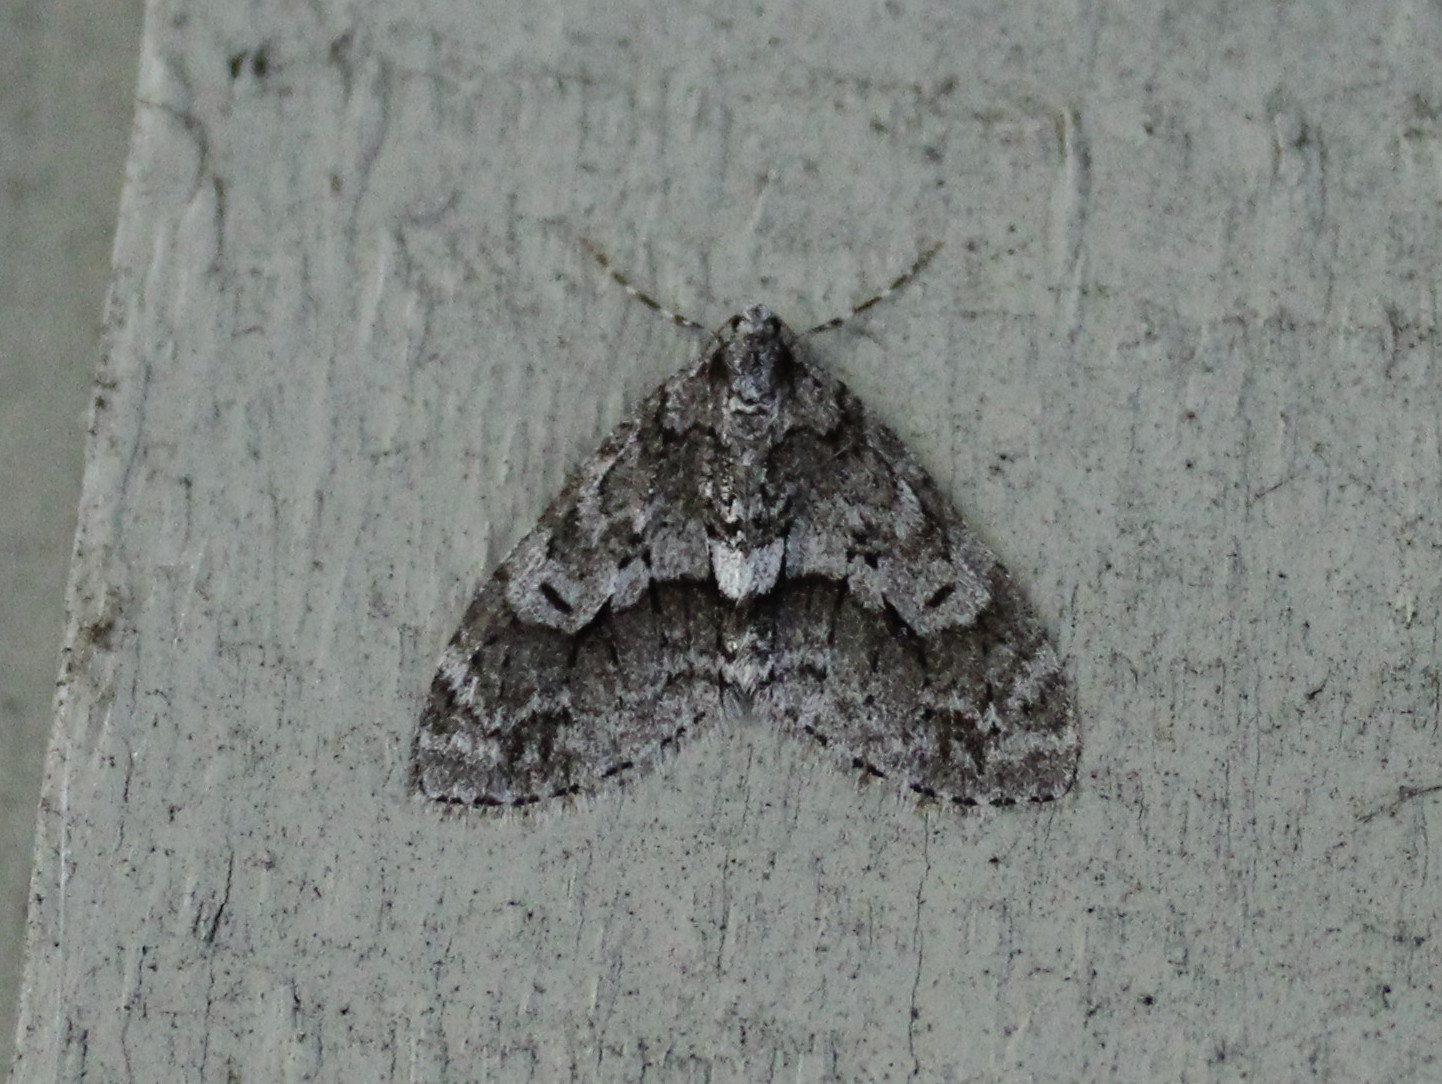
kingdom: Animalia
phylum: Arthropoda
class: Insecta
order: Lepidoptera
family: Geometridae
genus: Cladara
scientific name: Cladara limitaria
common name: Mottled gray carpet
